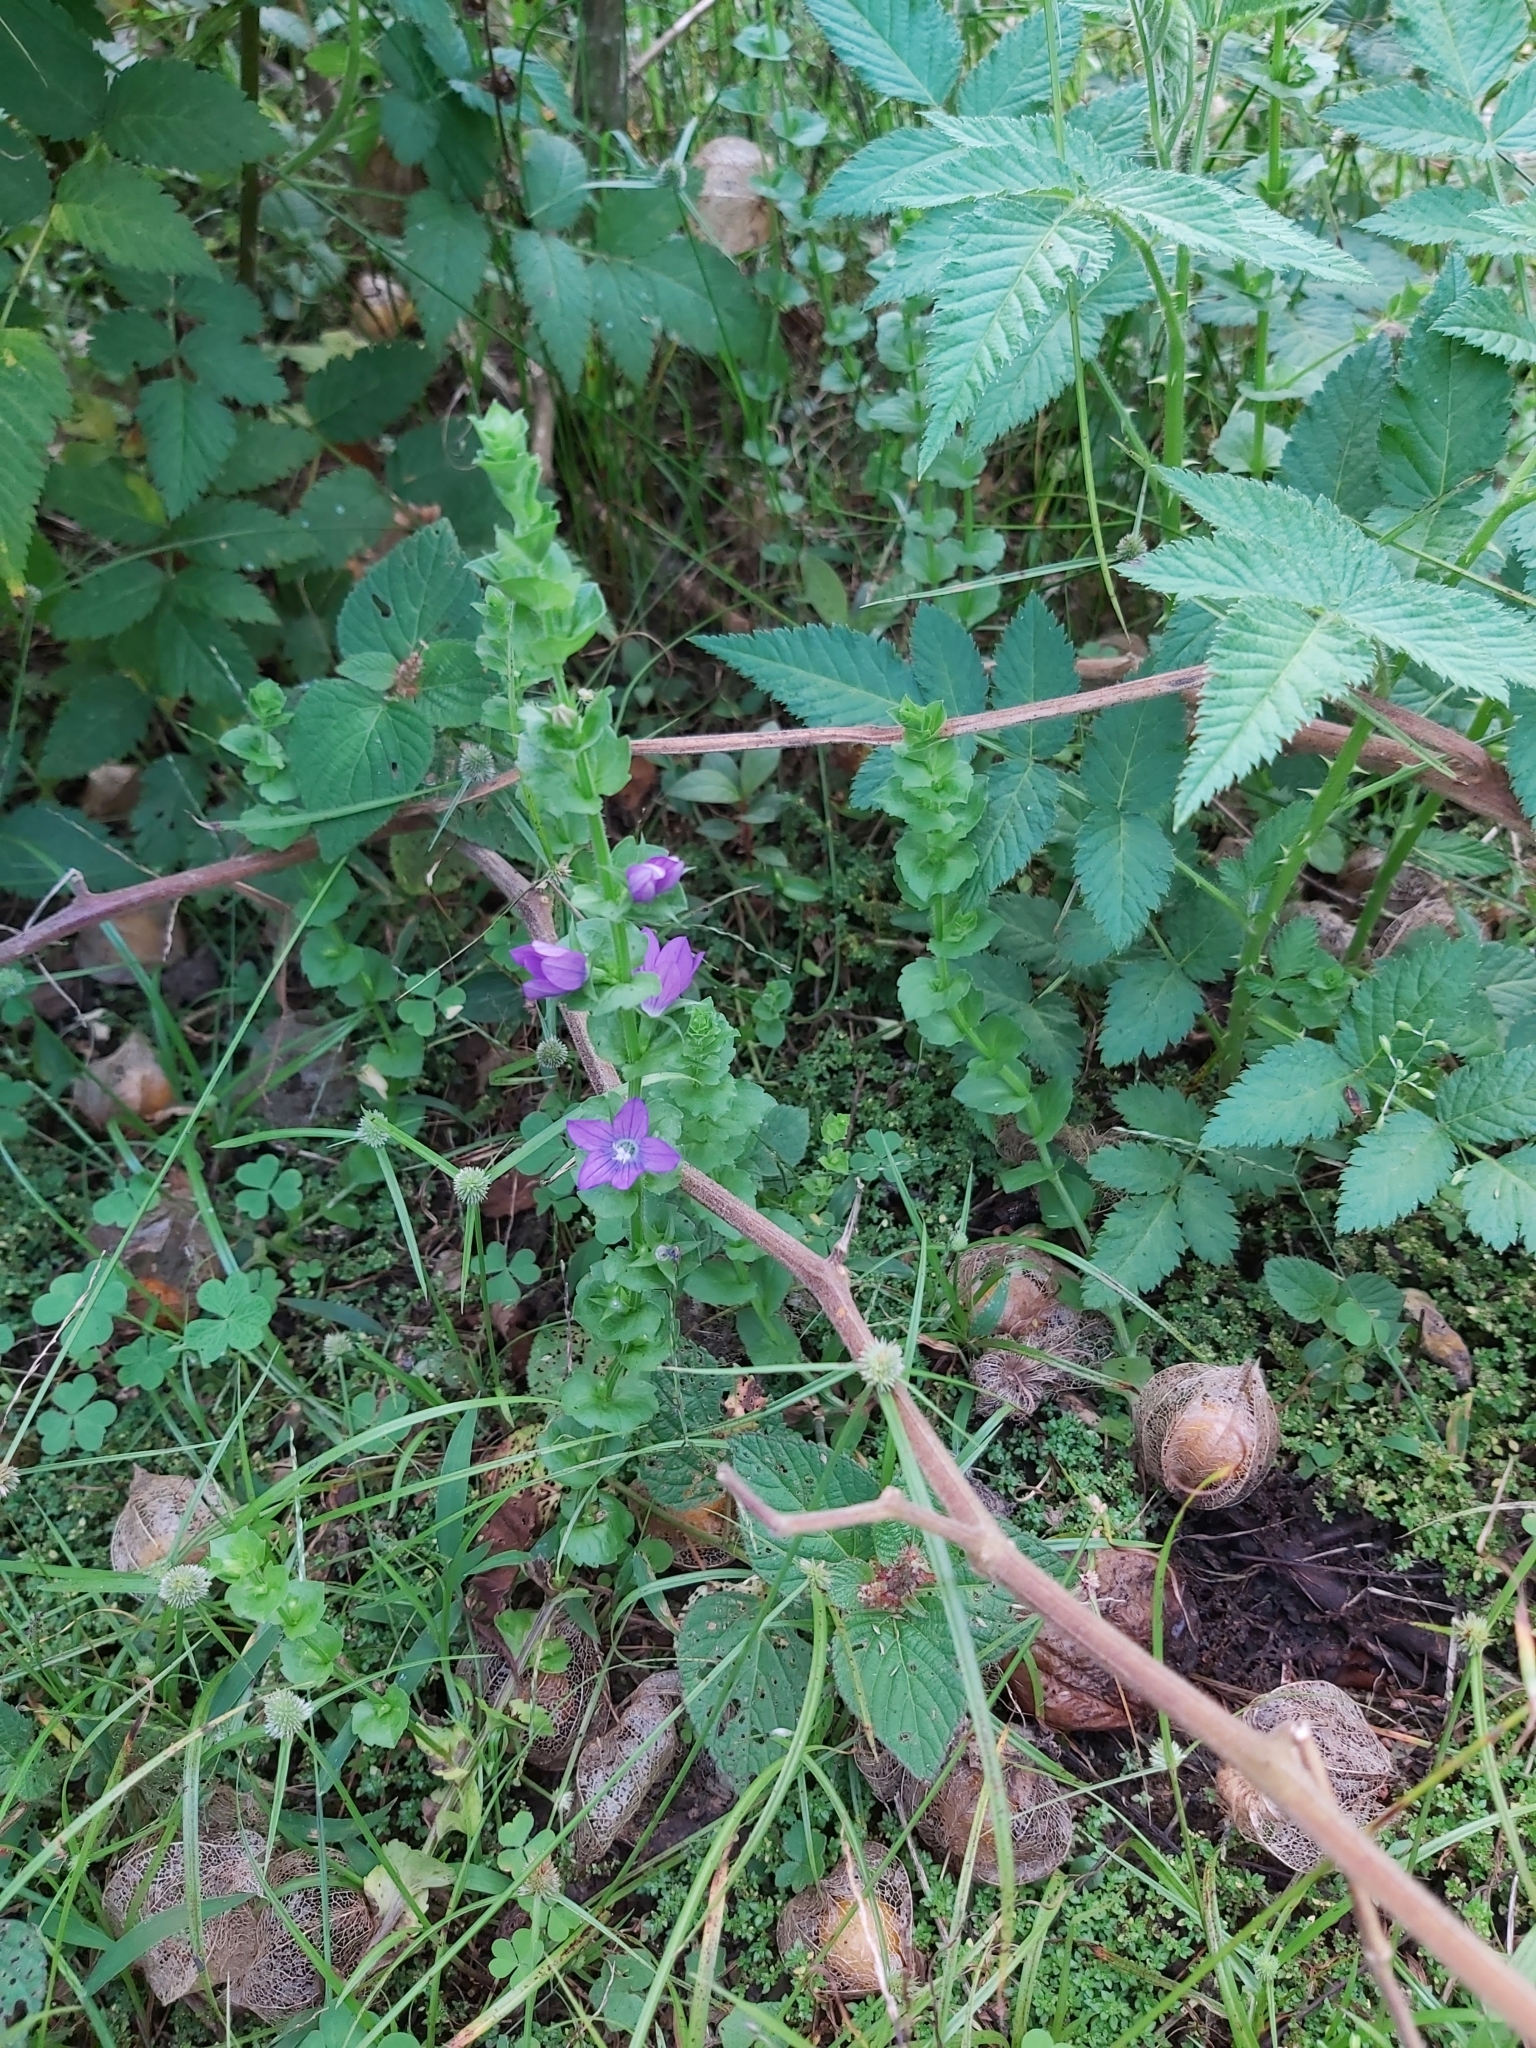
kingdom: Plantae
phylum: Tracheophyta
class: Magnoliopsida
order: Asterales
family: Campanulaceae
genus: Triodanis
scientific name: Triodanis perfoliata
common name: Clasping venus' looking-glass
